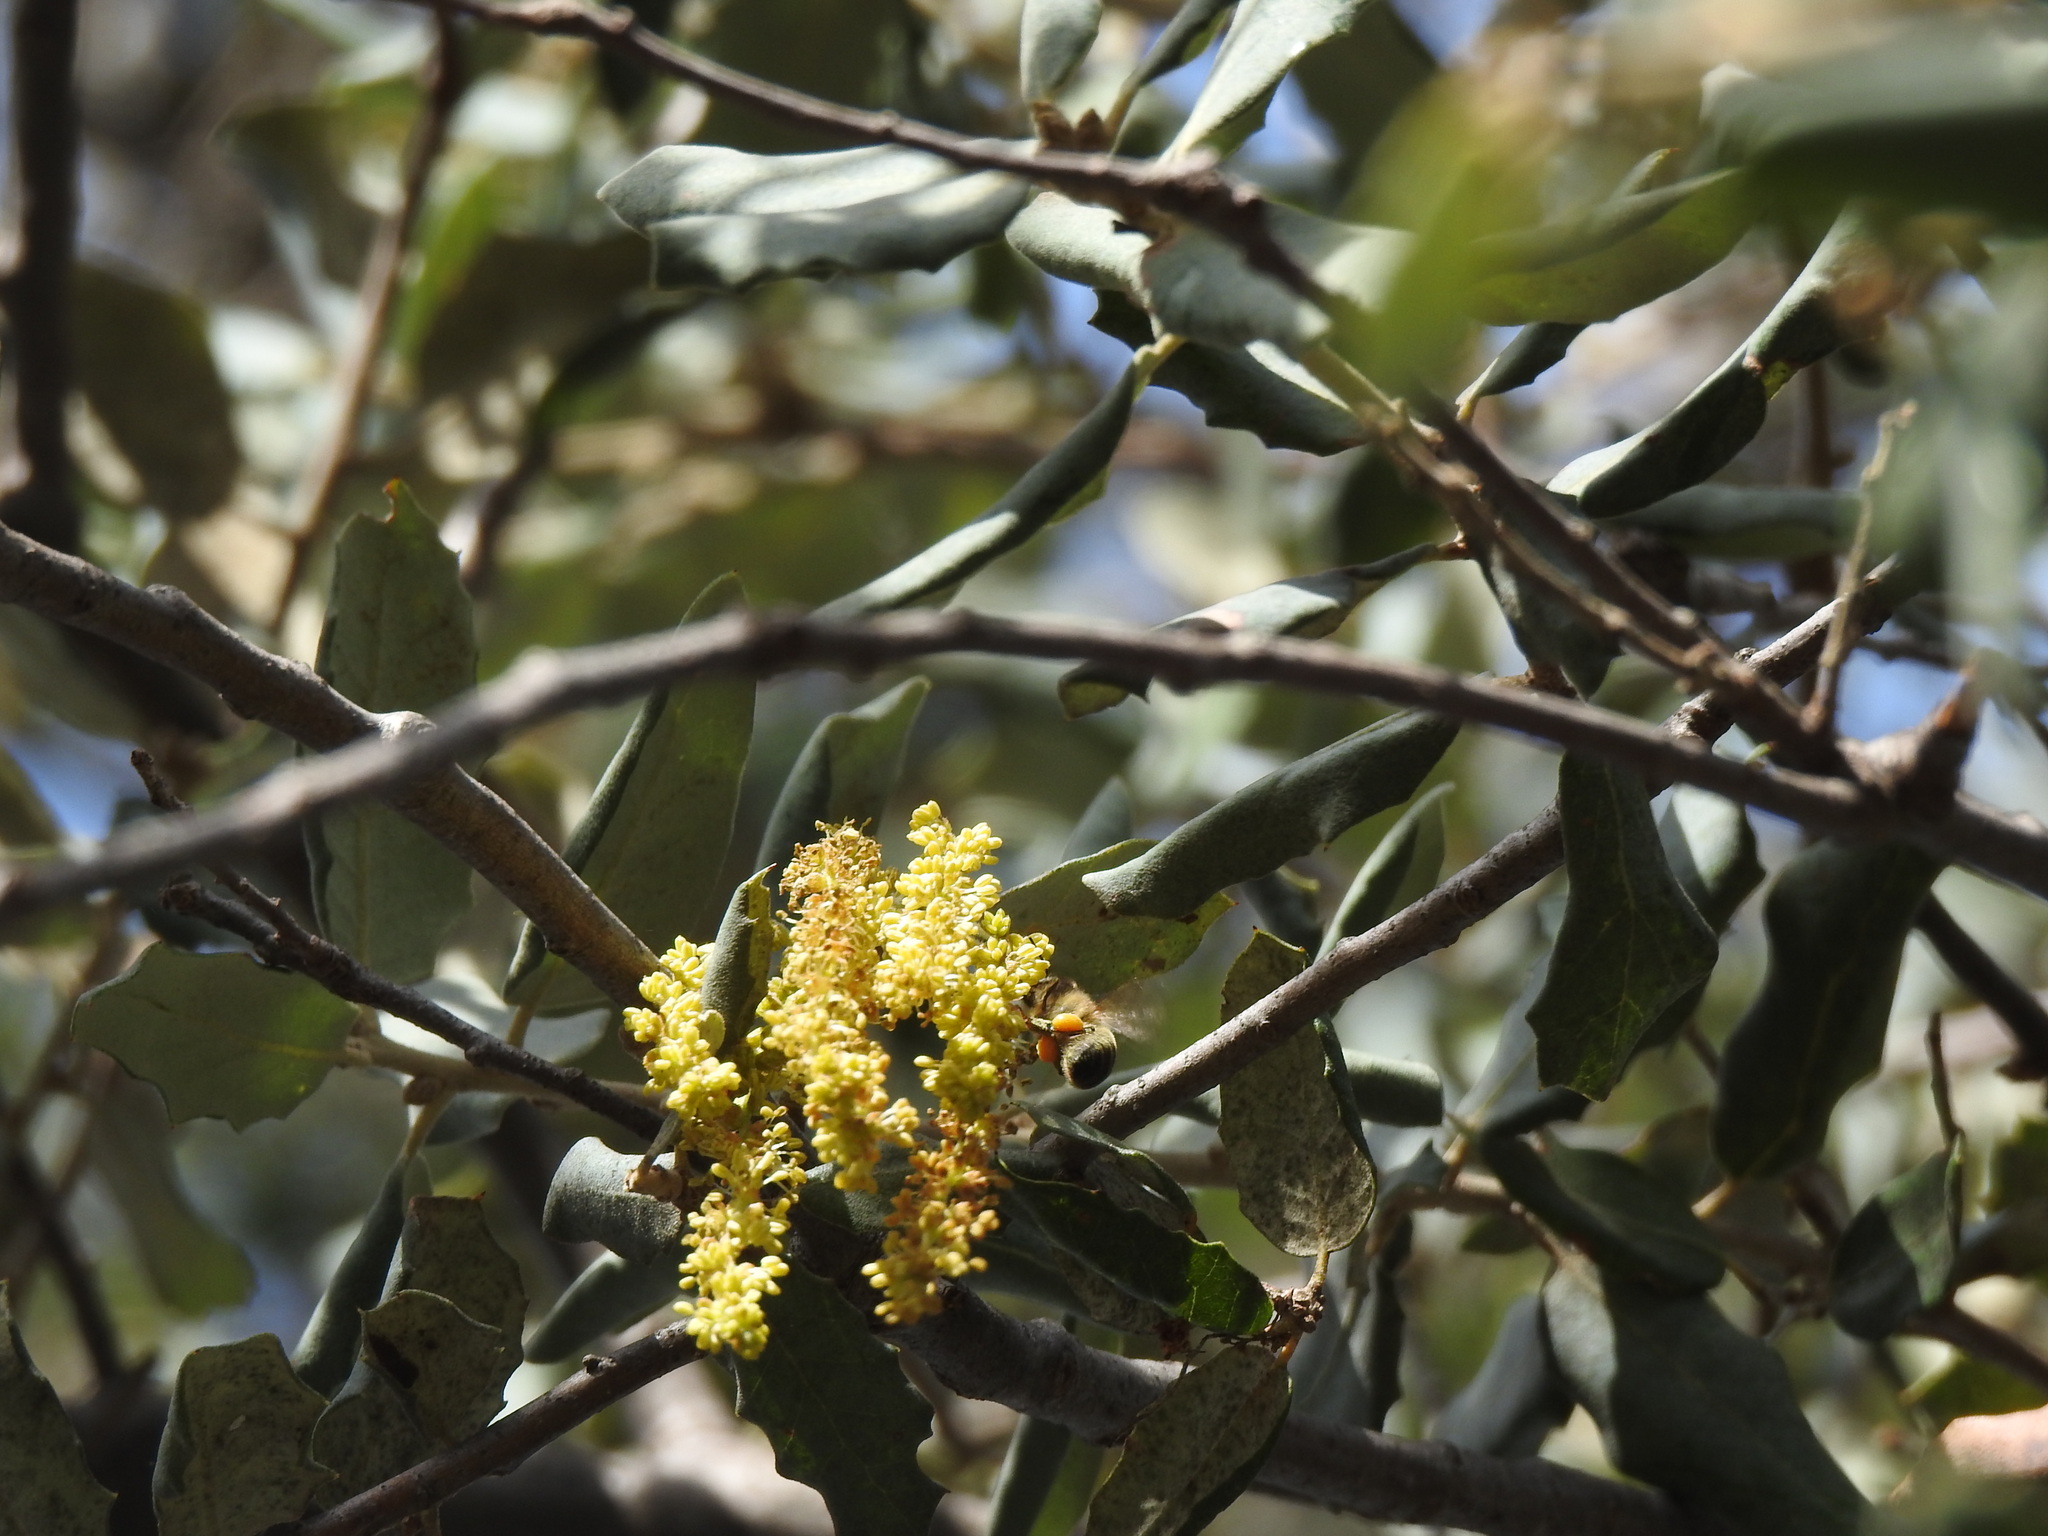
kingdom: Animalia
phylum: Arthropoda
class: Insecta
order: Hymenoptera
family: Apidae
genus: Apis
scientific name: Apis mellifera
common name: Honey bee
